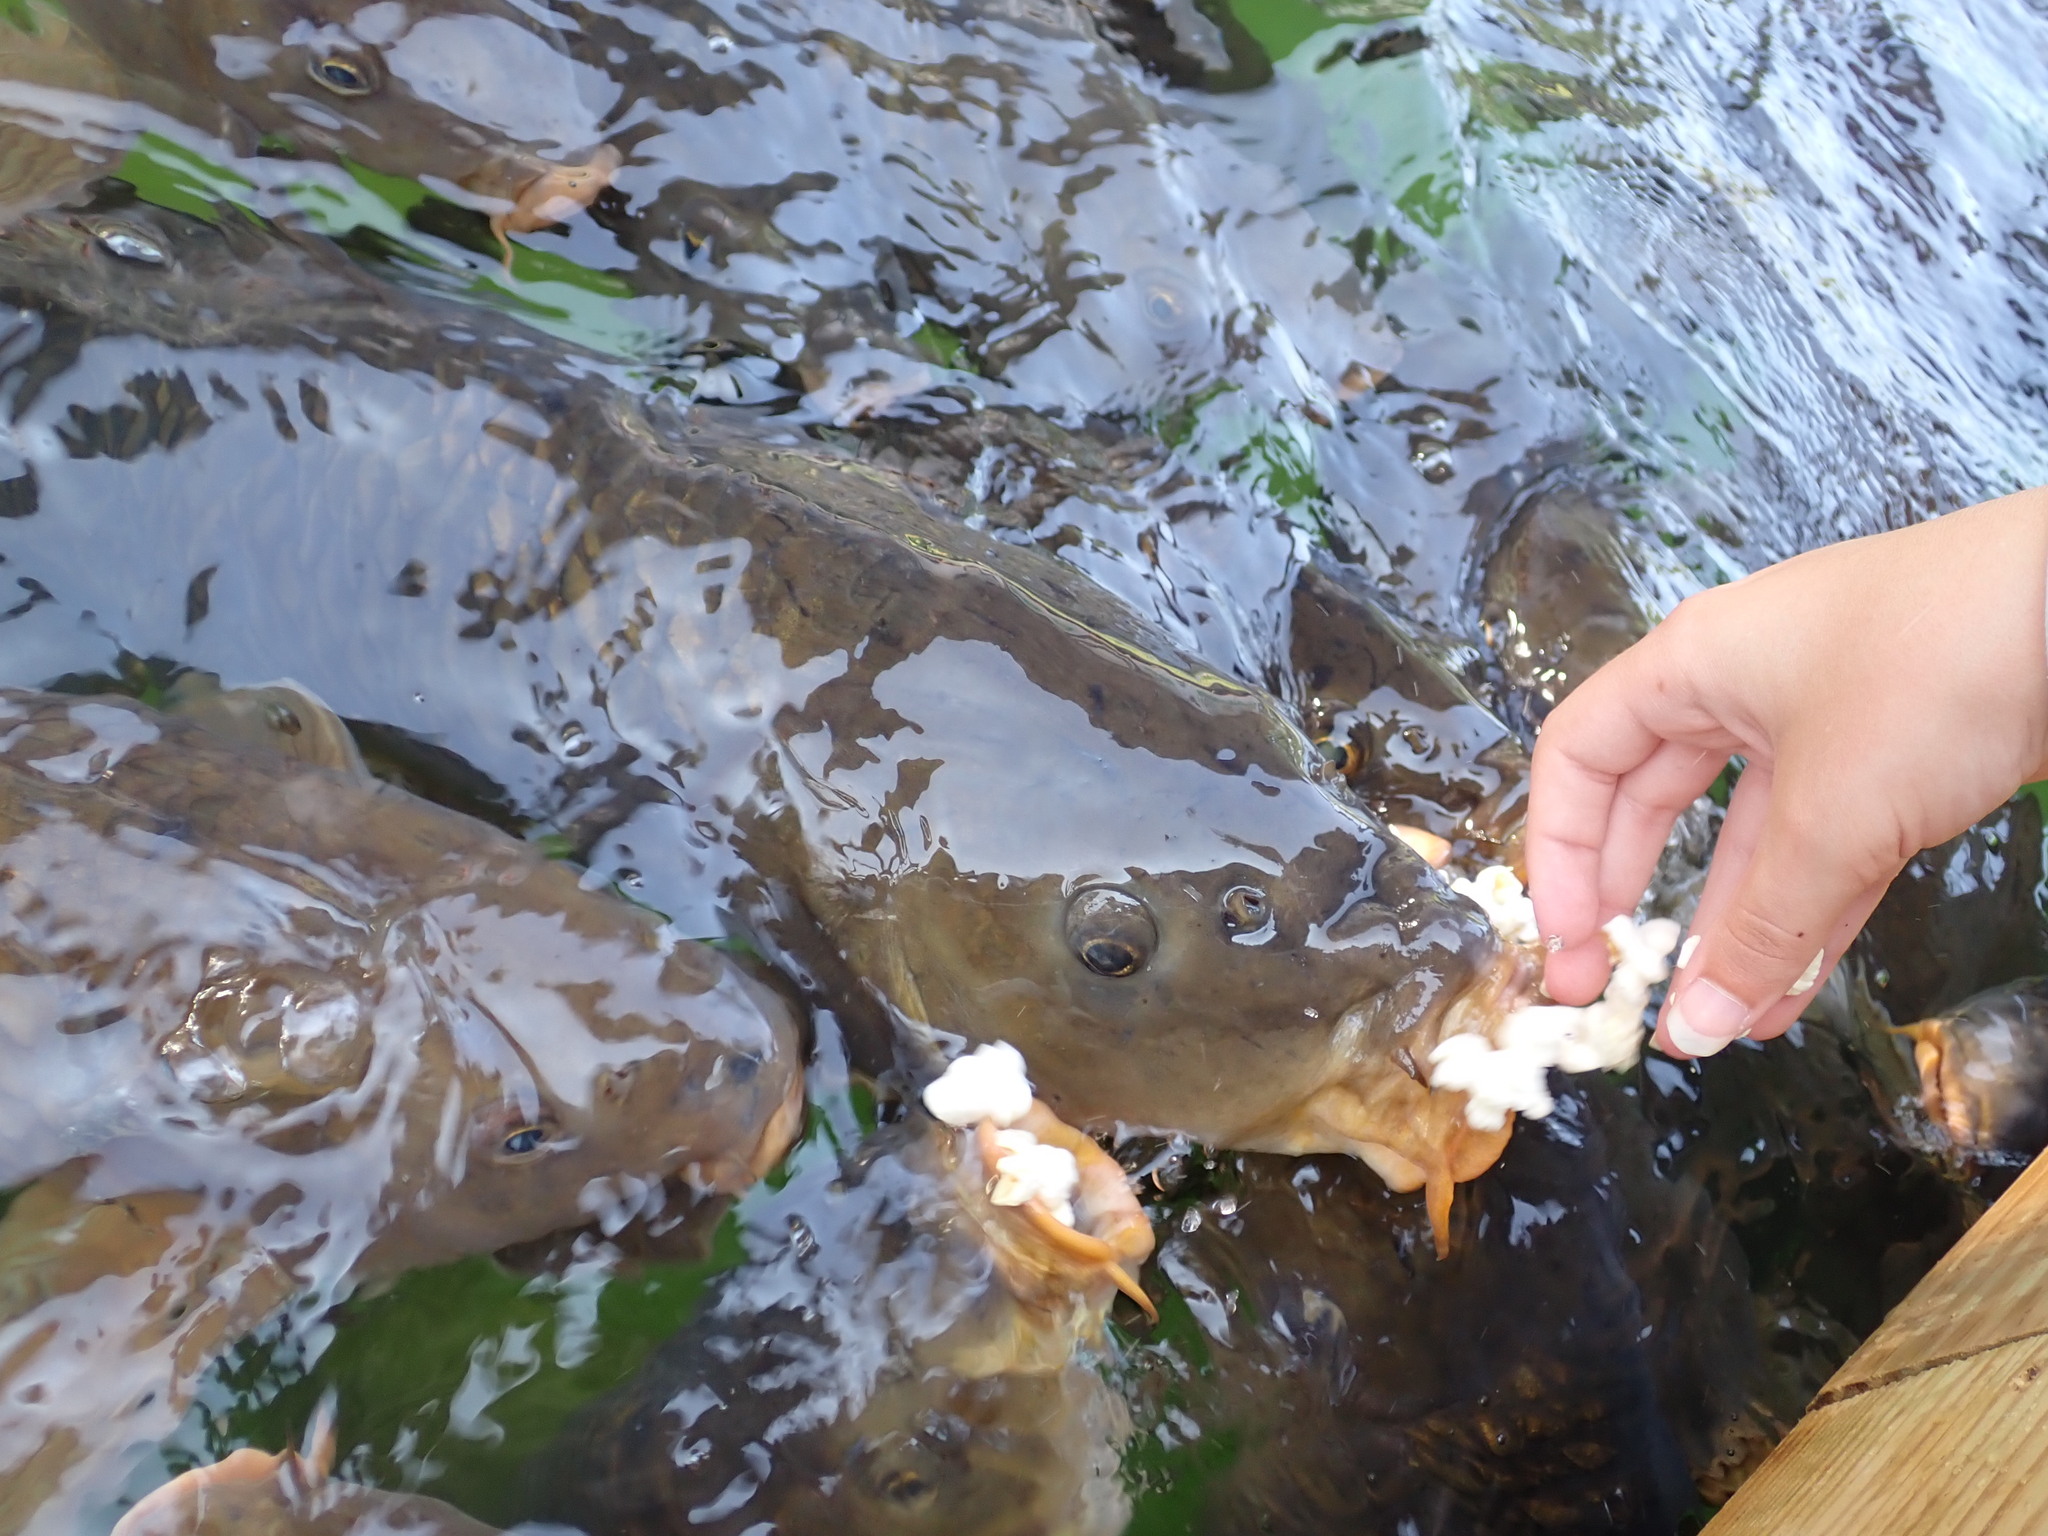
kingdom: Animalia
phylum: Chordata
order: Cypriniformes
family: Cyprinidae
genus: Cyprinus
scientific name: Cyprinus carpio
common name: Common carp
